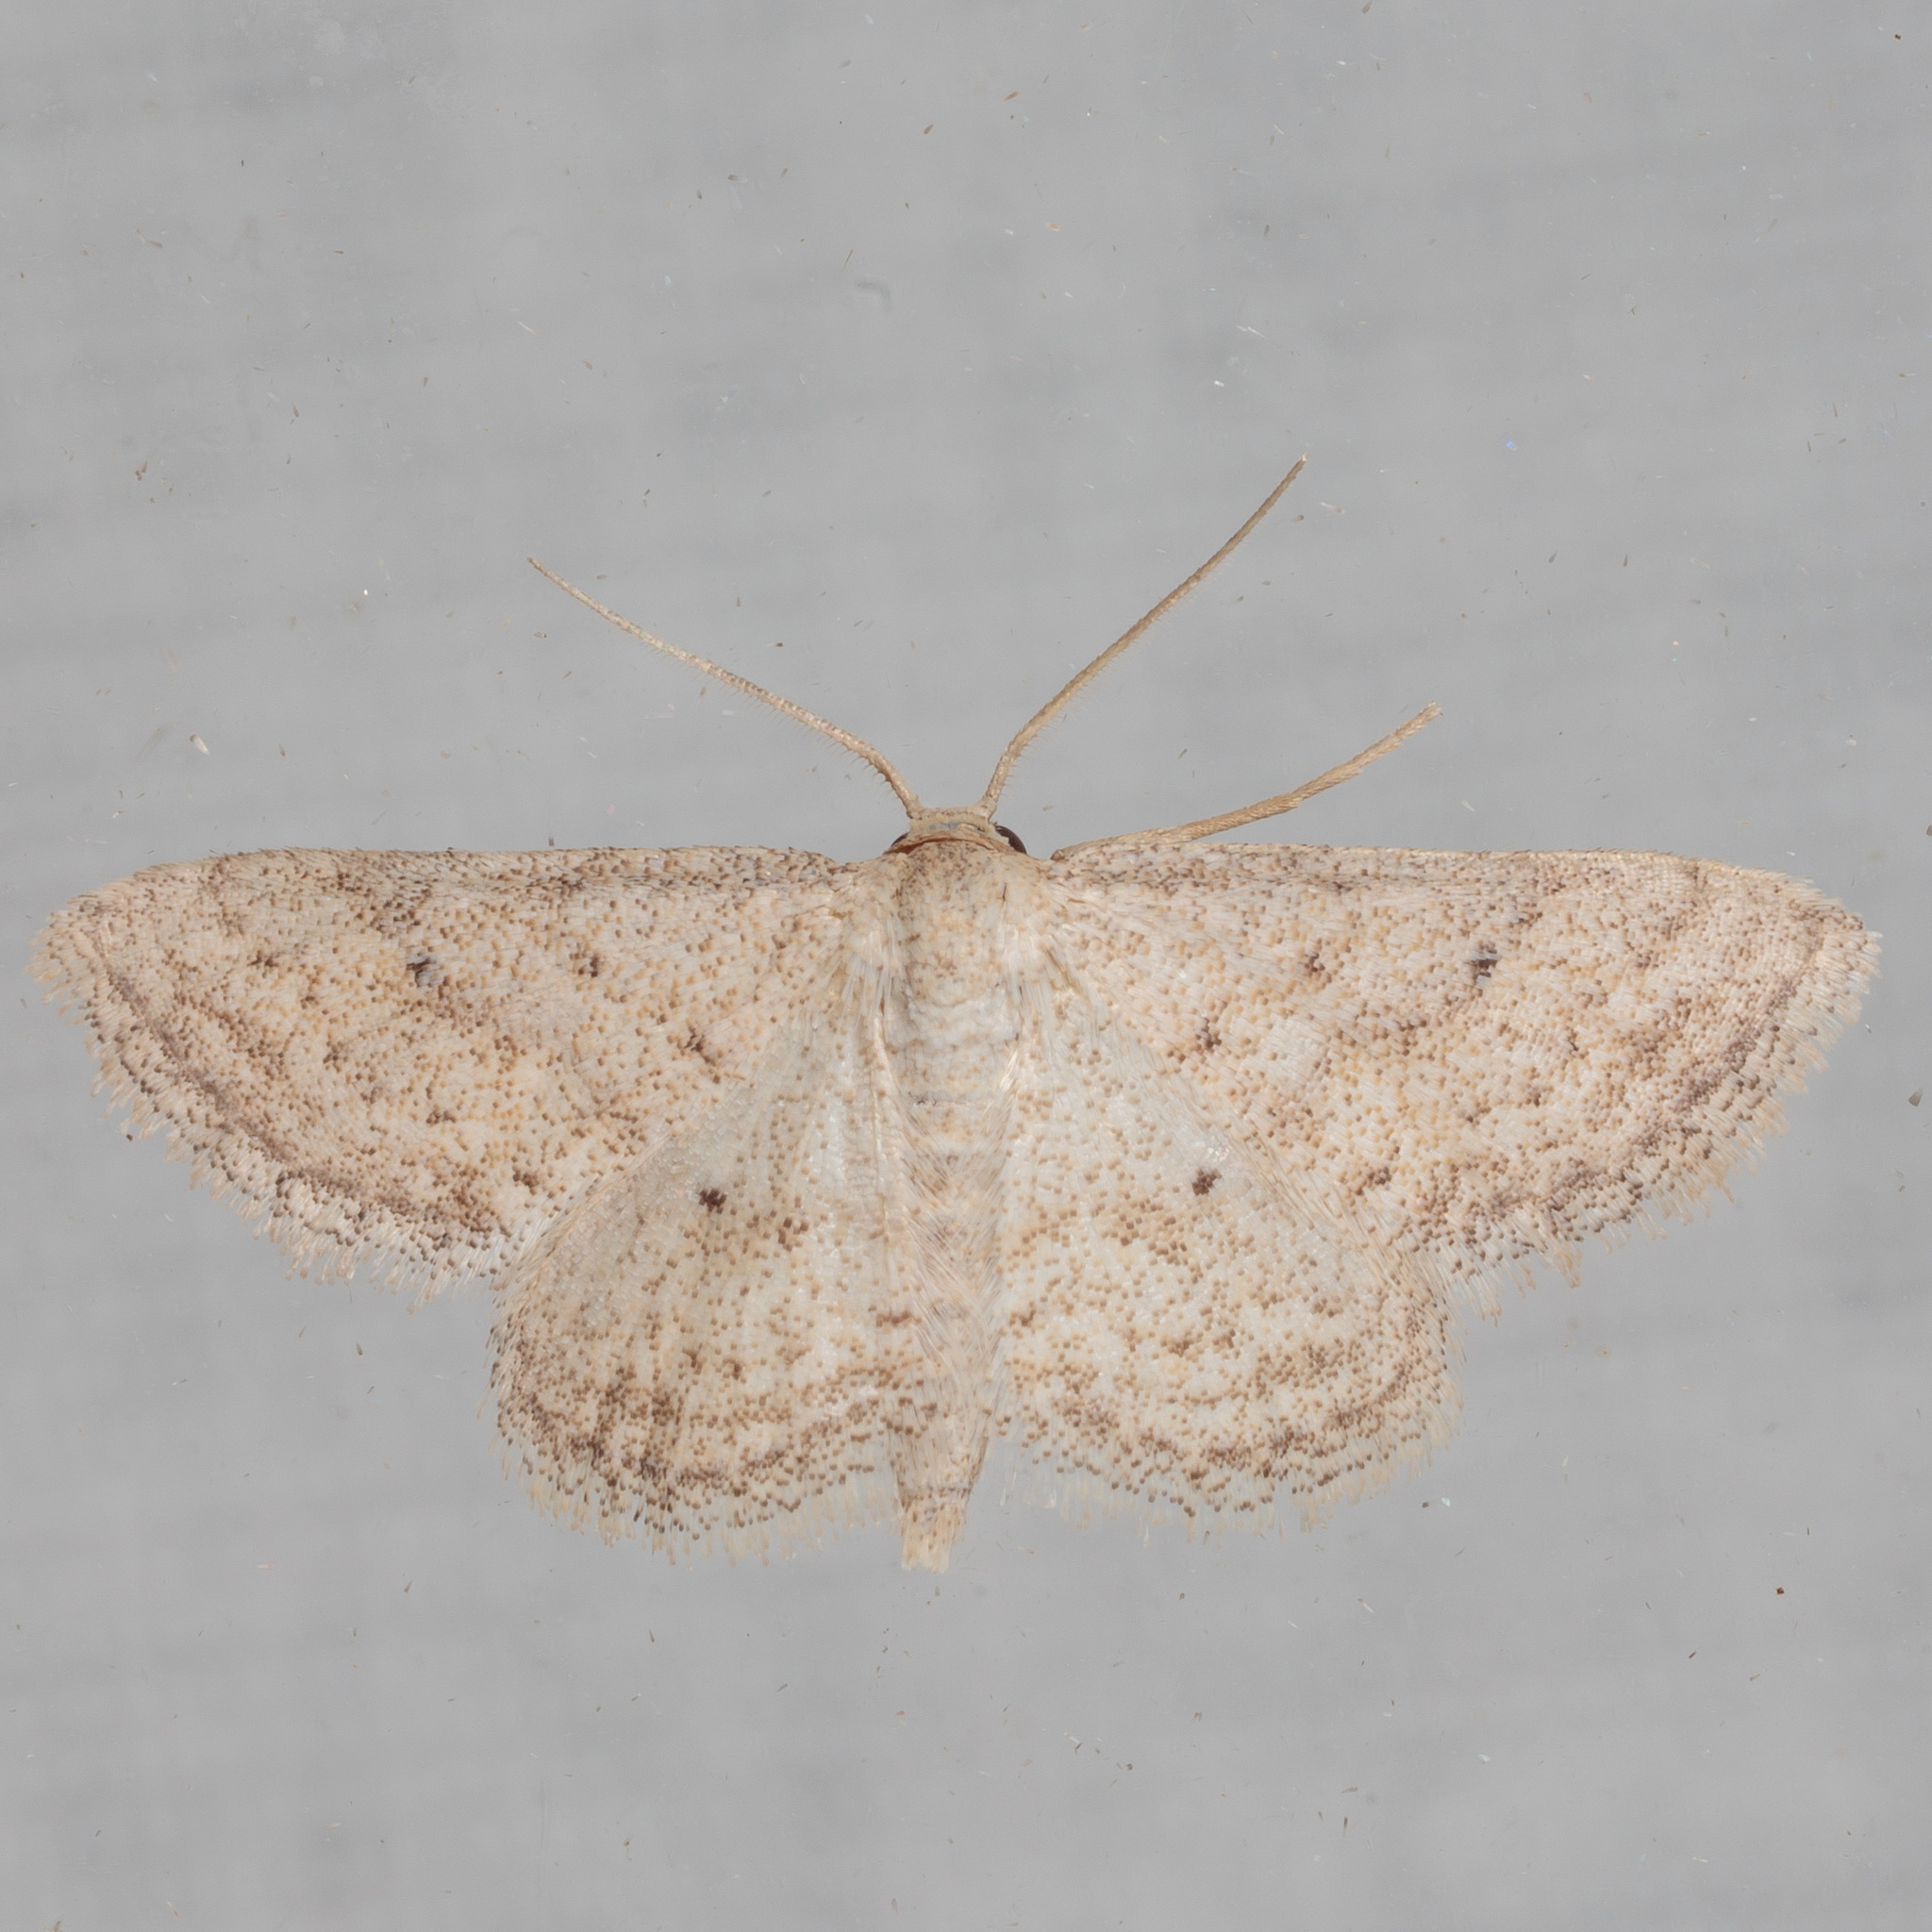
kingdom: Animalia
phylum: Arthropoda
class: Insecta
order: Lepidoptera
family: Geometridae
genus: Lobocleta
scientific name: Lobocleta ossularia
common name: Drab brown wave
